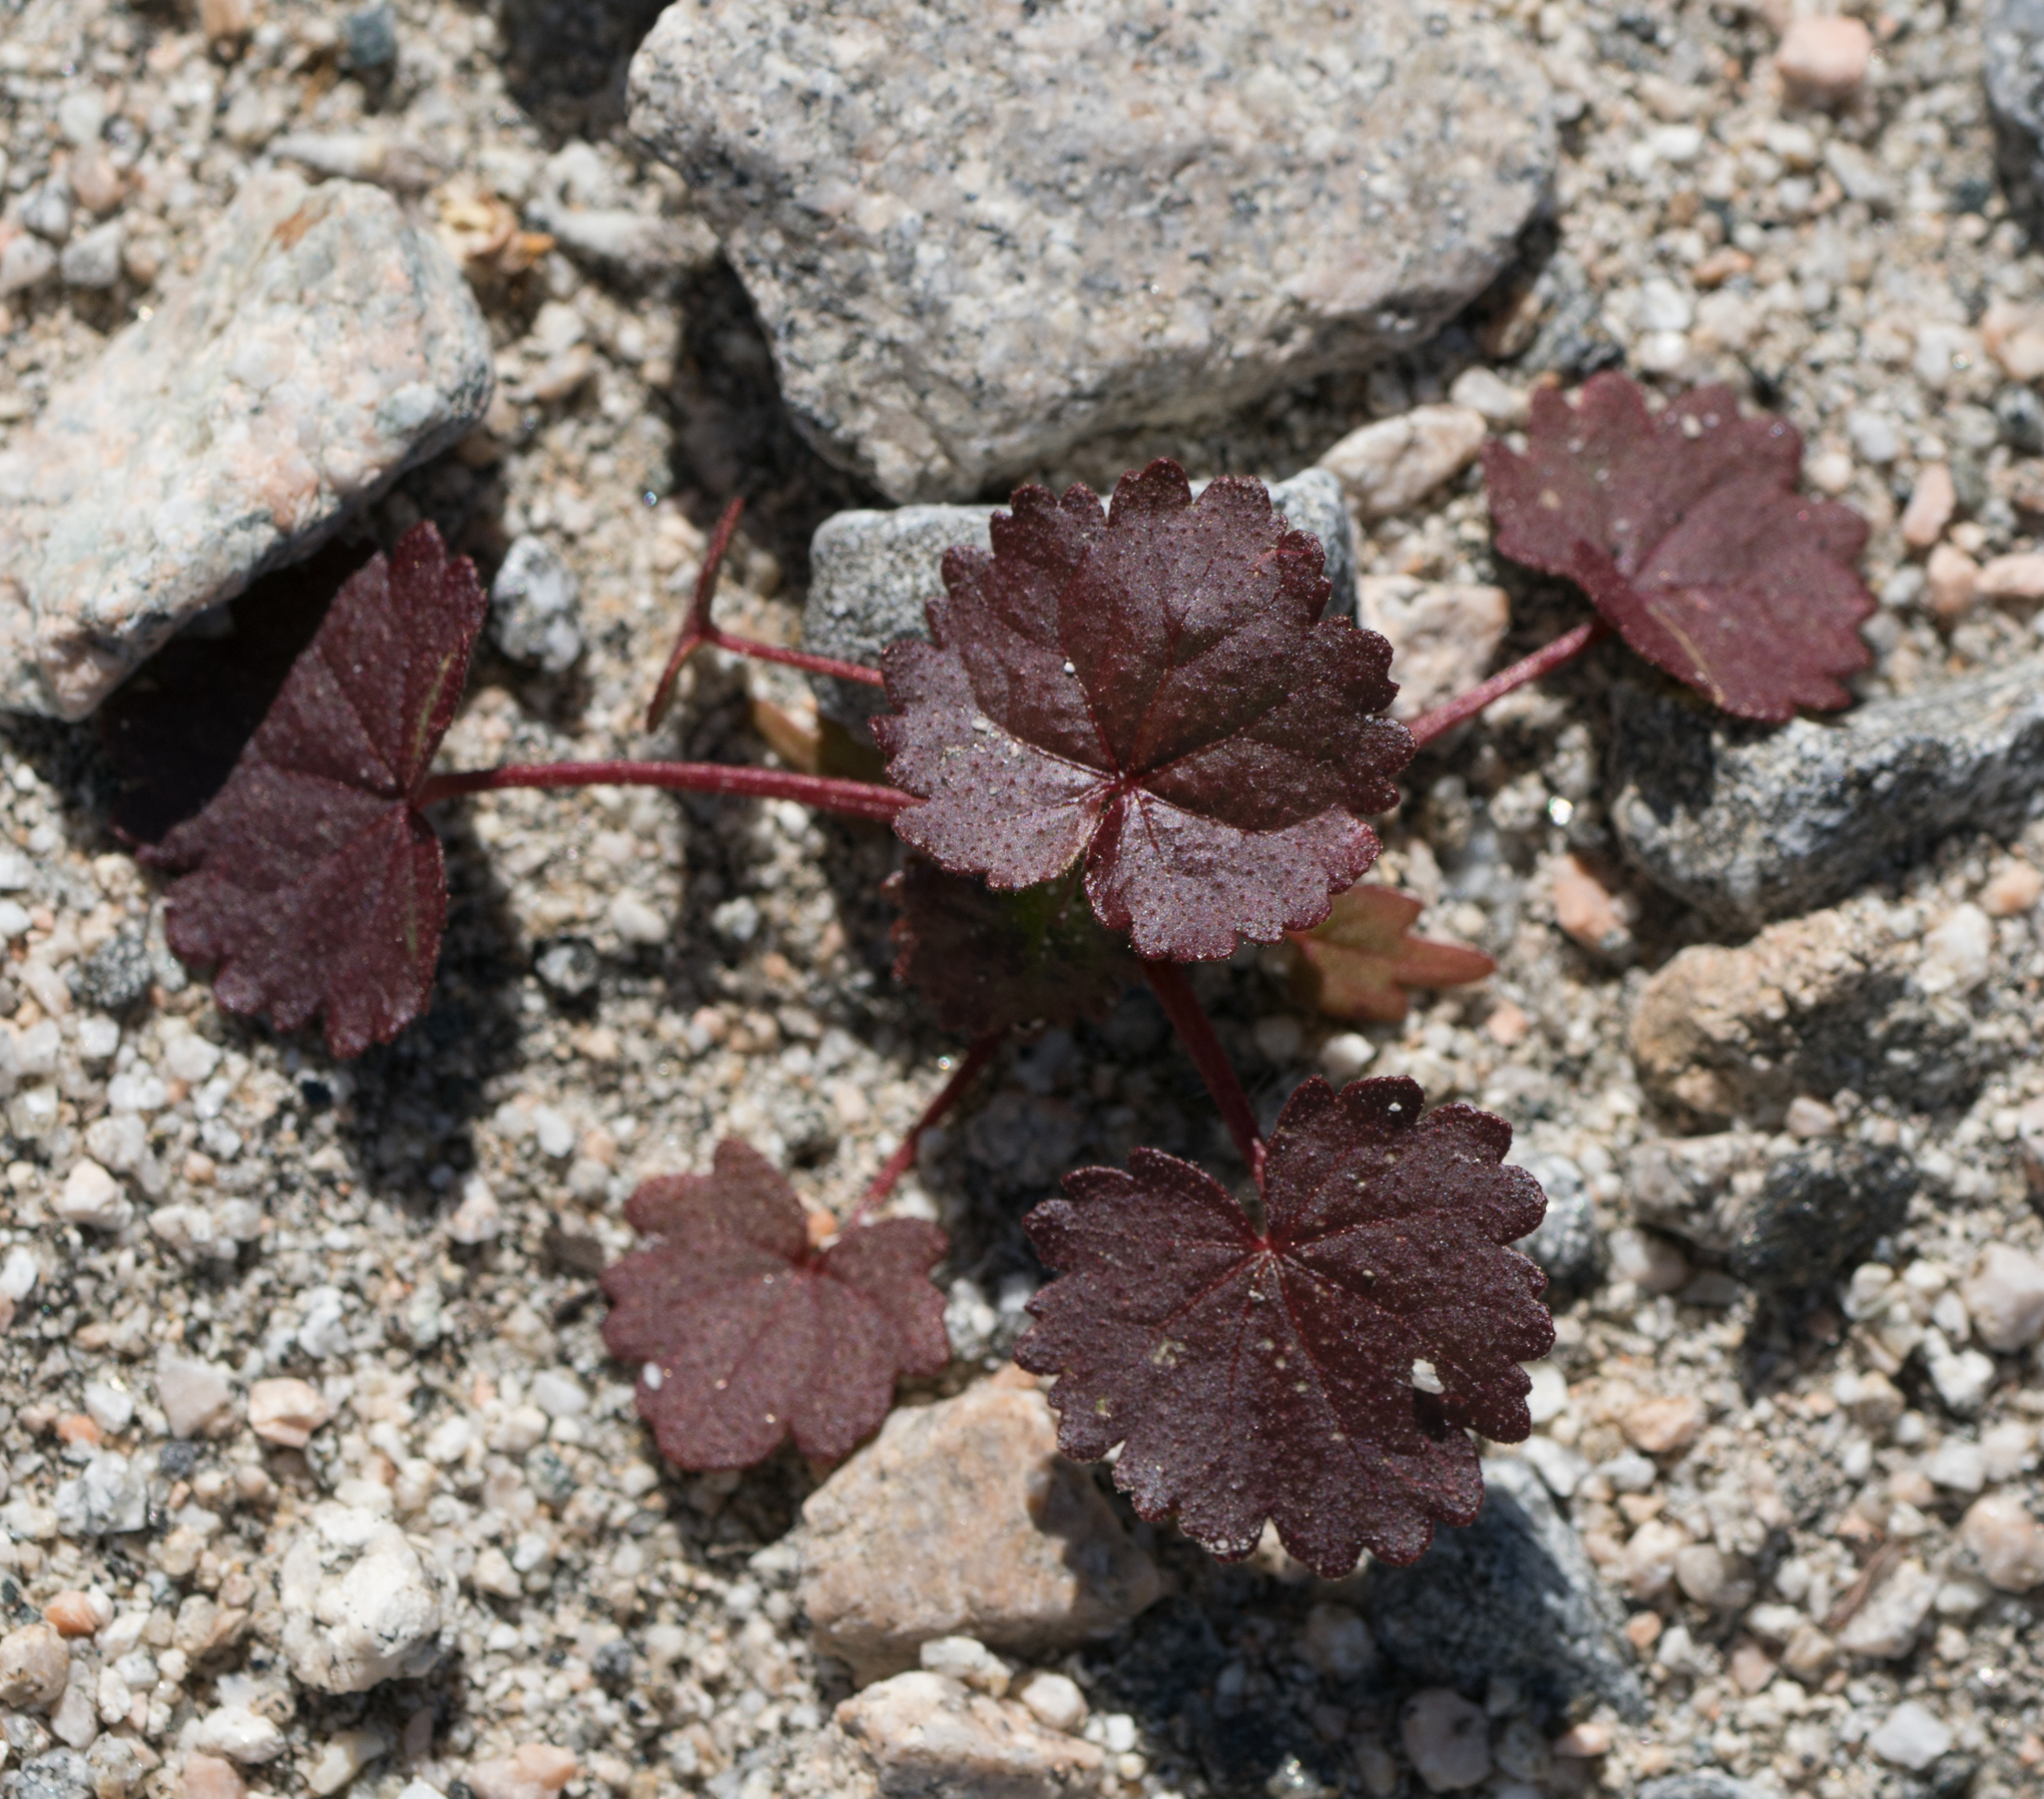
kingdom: Plantae
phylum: Tracheophyta
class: Magnoliopsida
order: Malvales
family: Malvaceae
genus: Eremalche
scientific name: Eremalche rotundifolia
